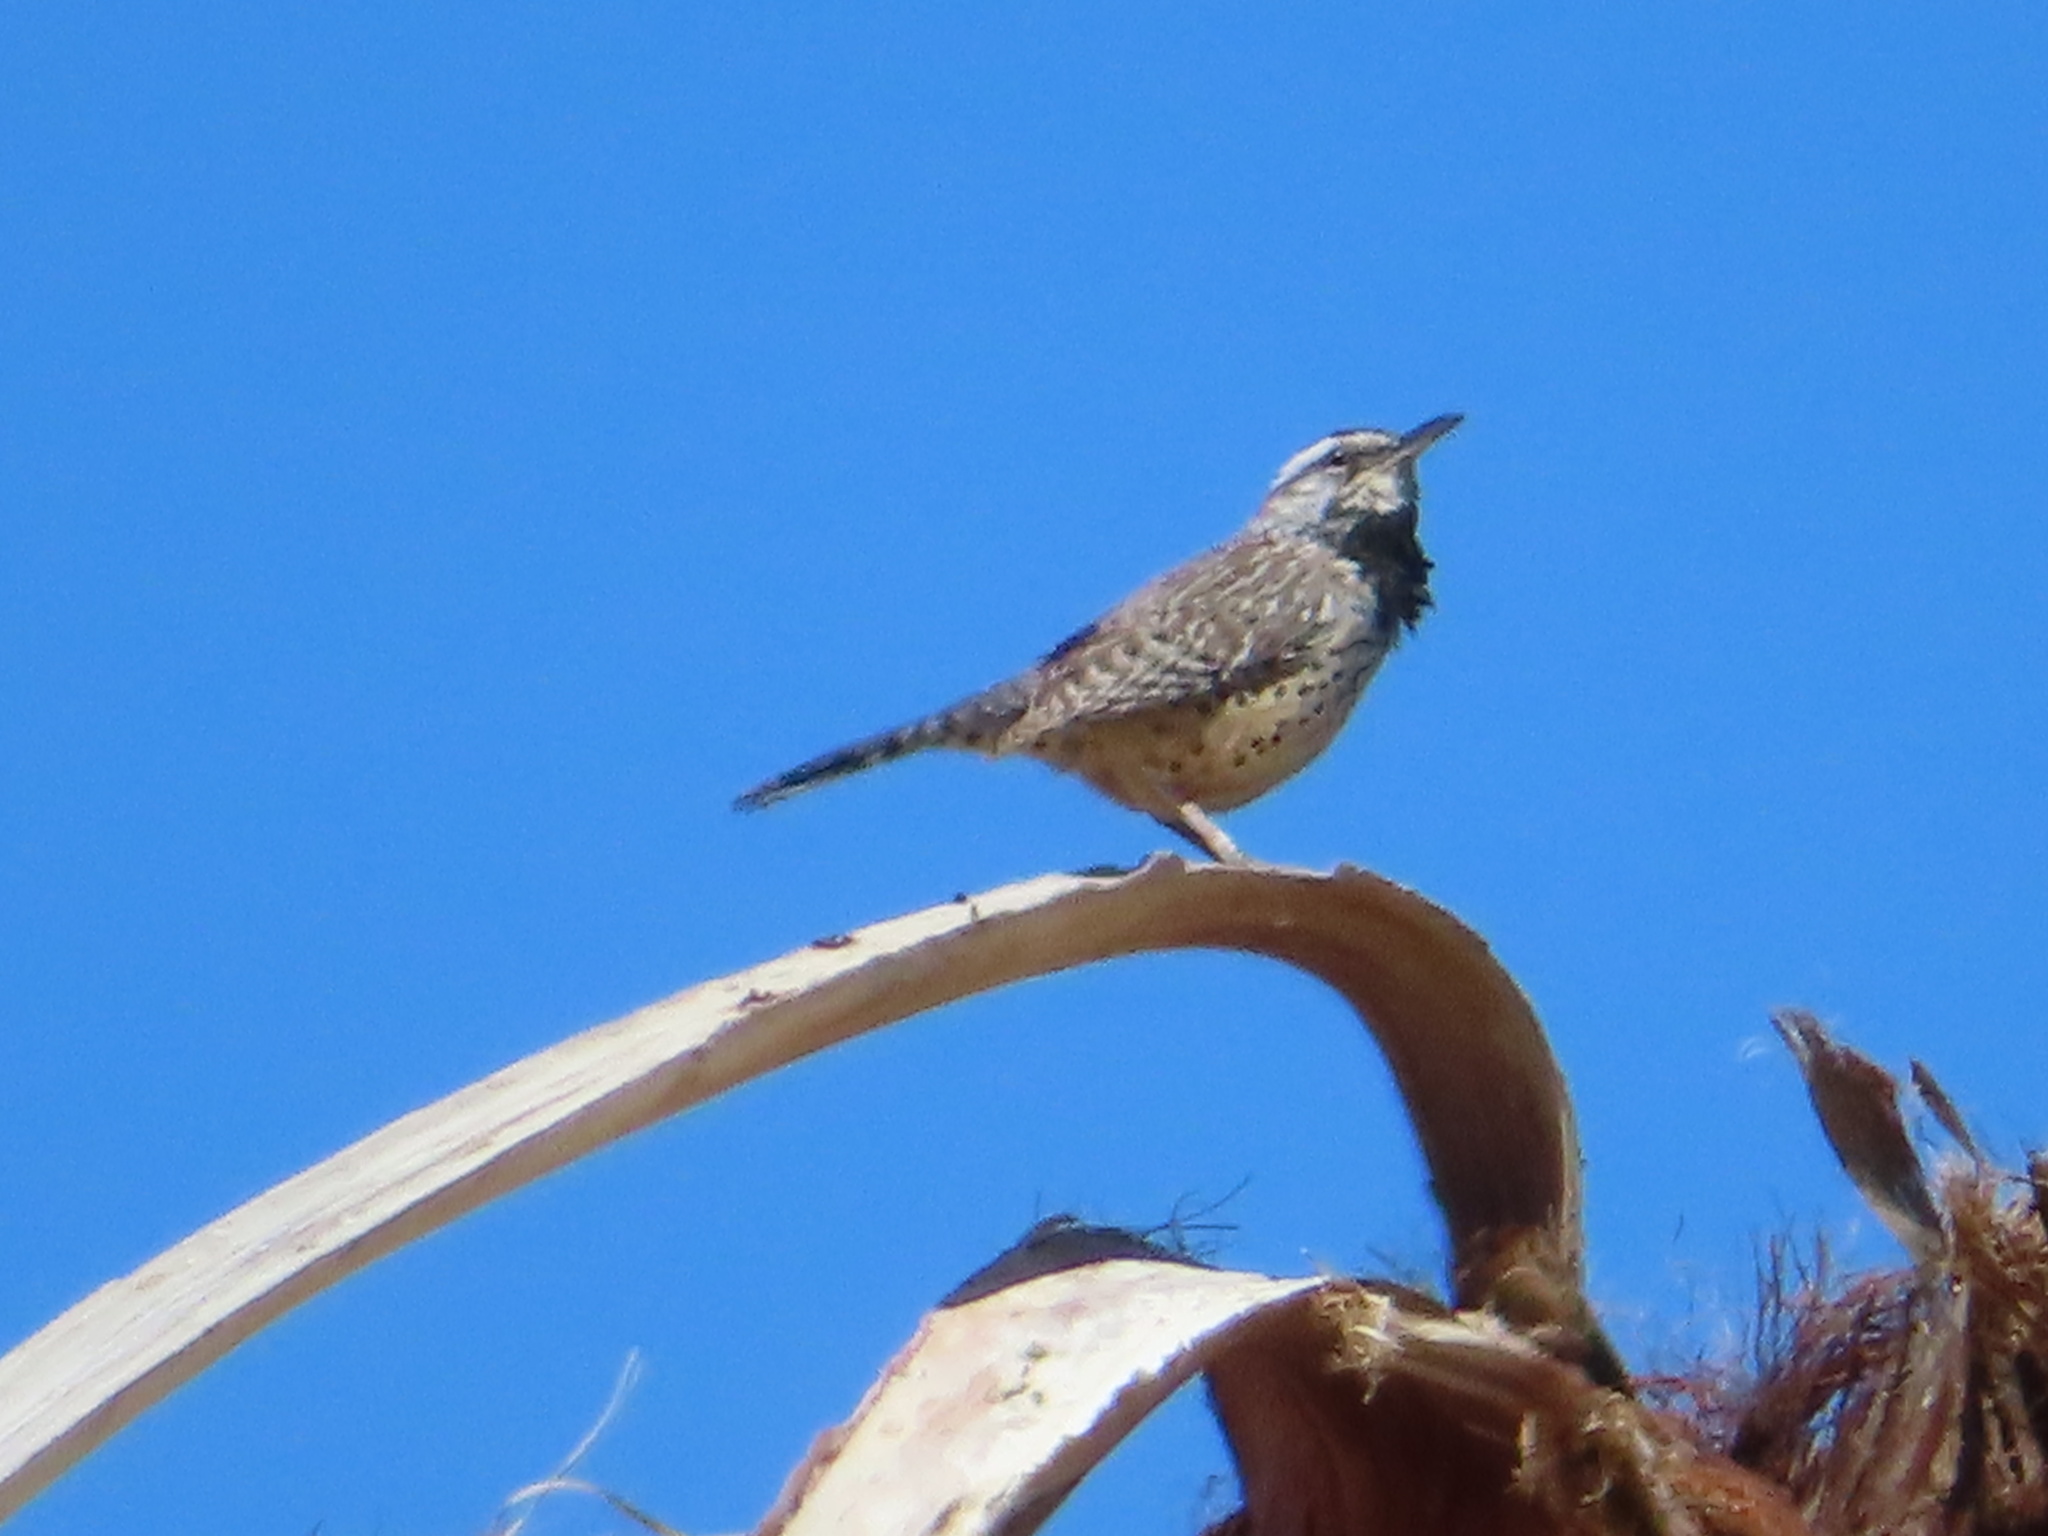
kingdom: Animalia
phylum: Chordata
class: Aves
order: Passeriformes
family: Troglodytidae
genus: Campylorhynchus
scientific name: Campylorhynchus brunneicapillus
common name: Cactus wren
